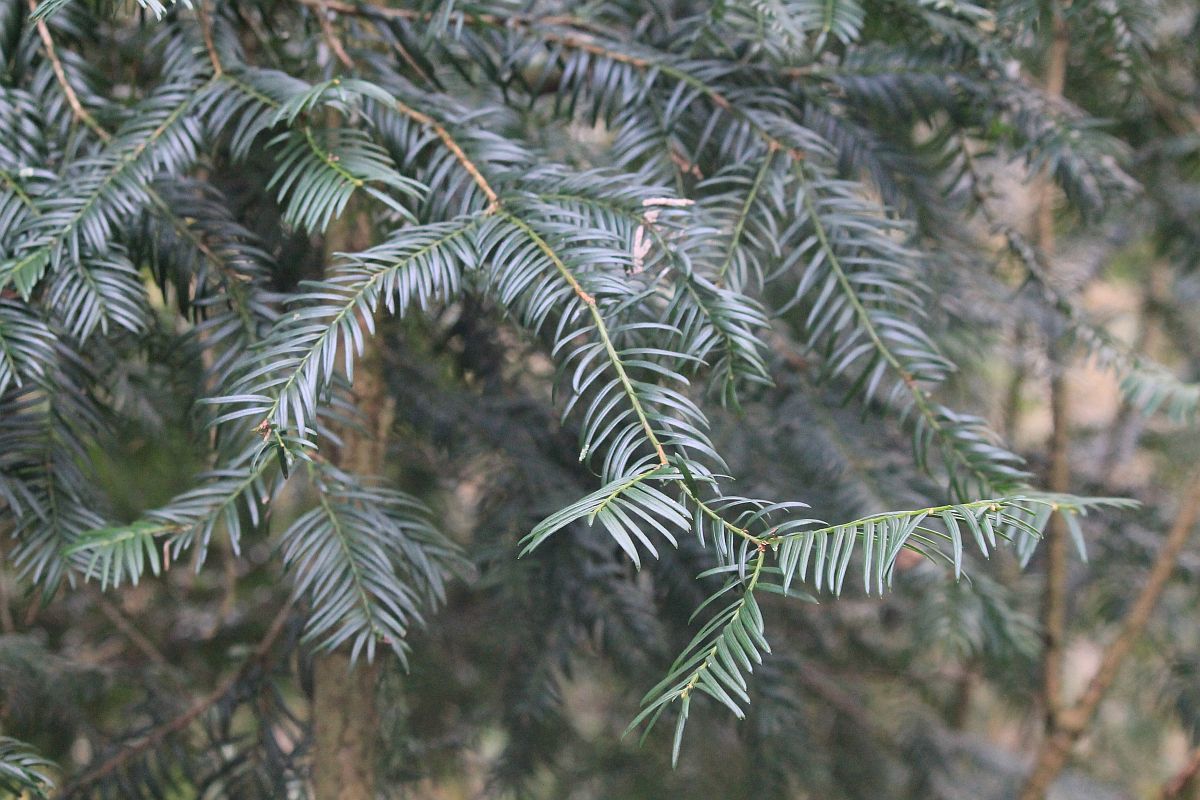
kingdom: Plantae
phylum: Tracheophyta
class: Pinopsida
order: Pinales
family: Taxaceae
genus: Taxus
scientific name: Taxus baccata
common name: Yew
